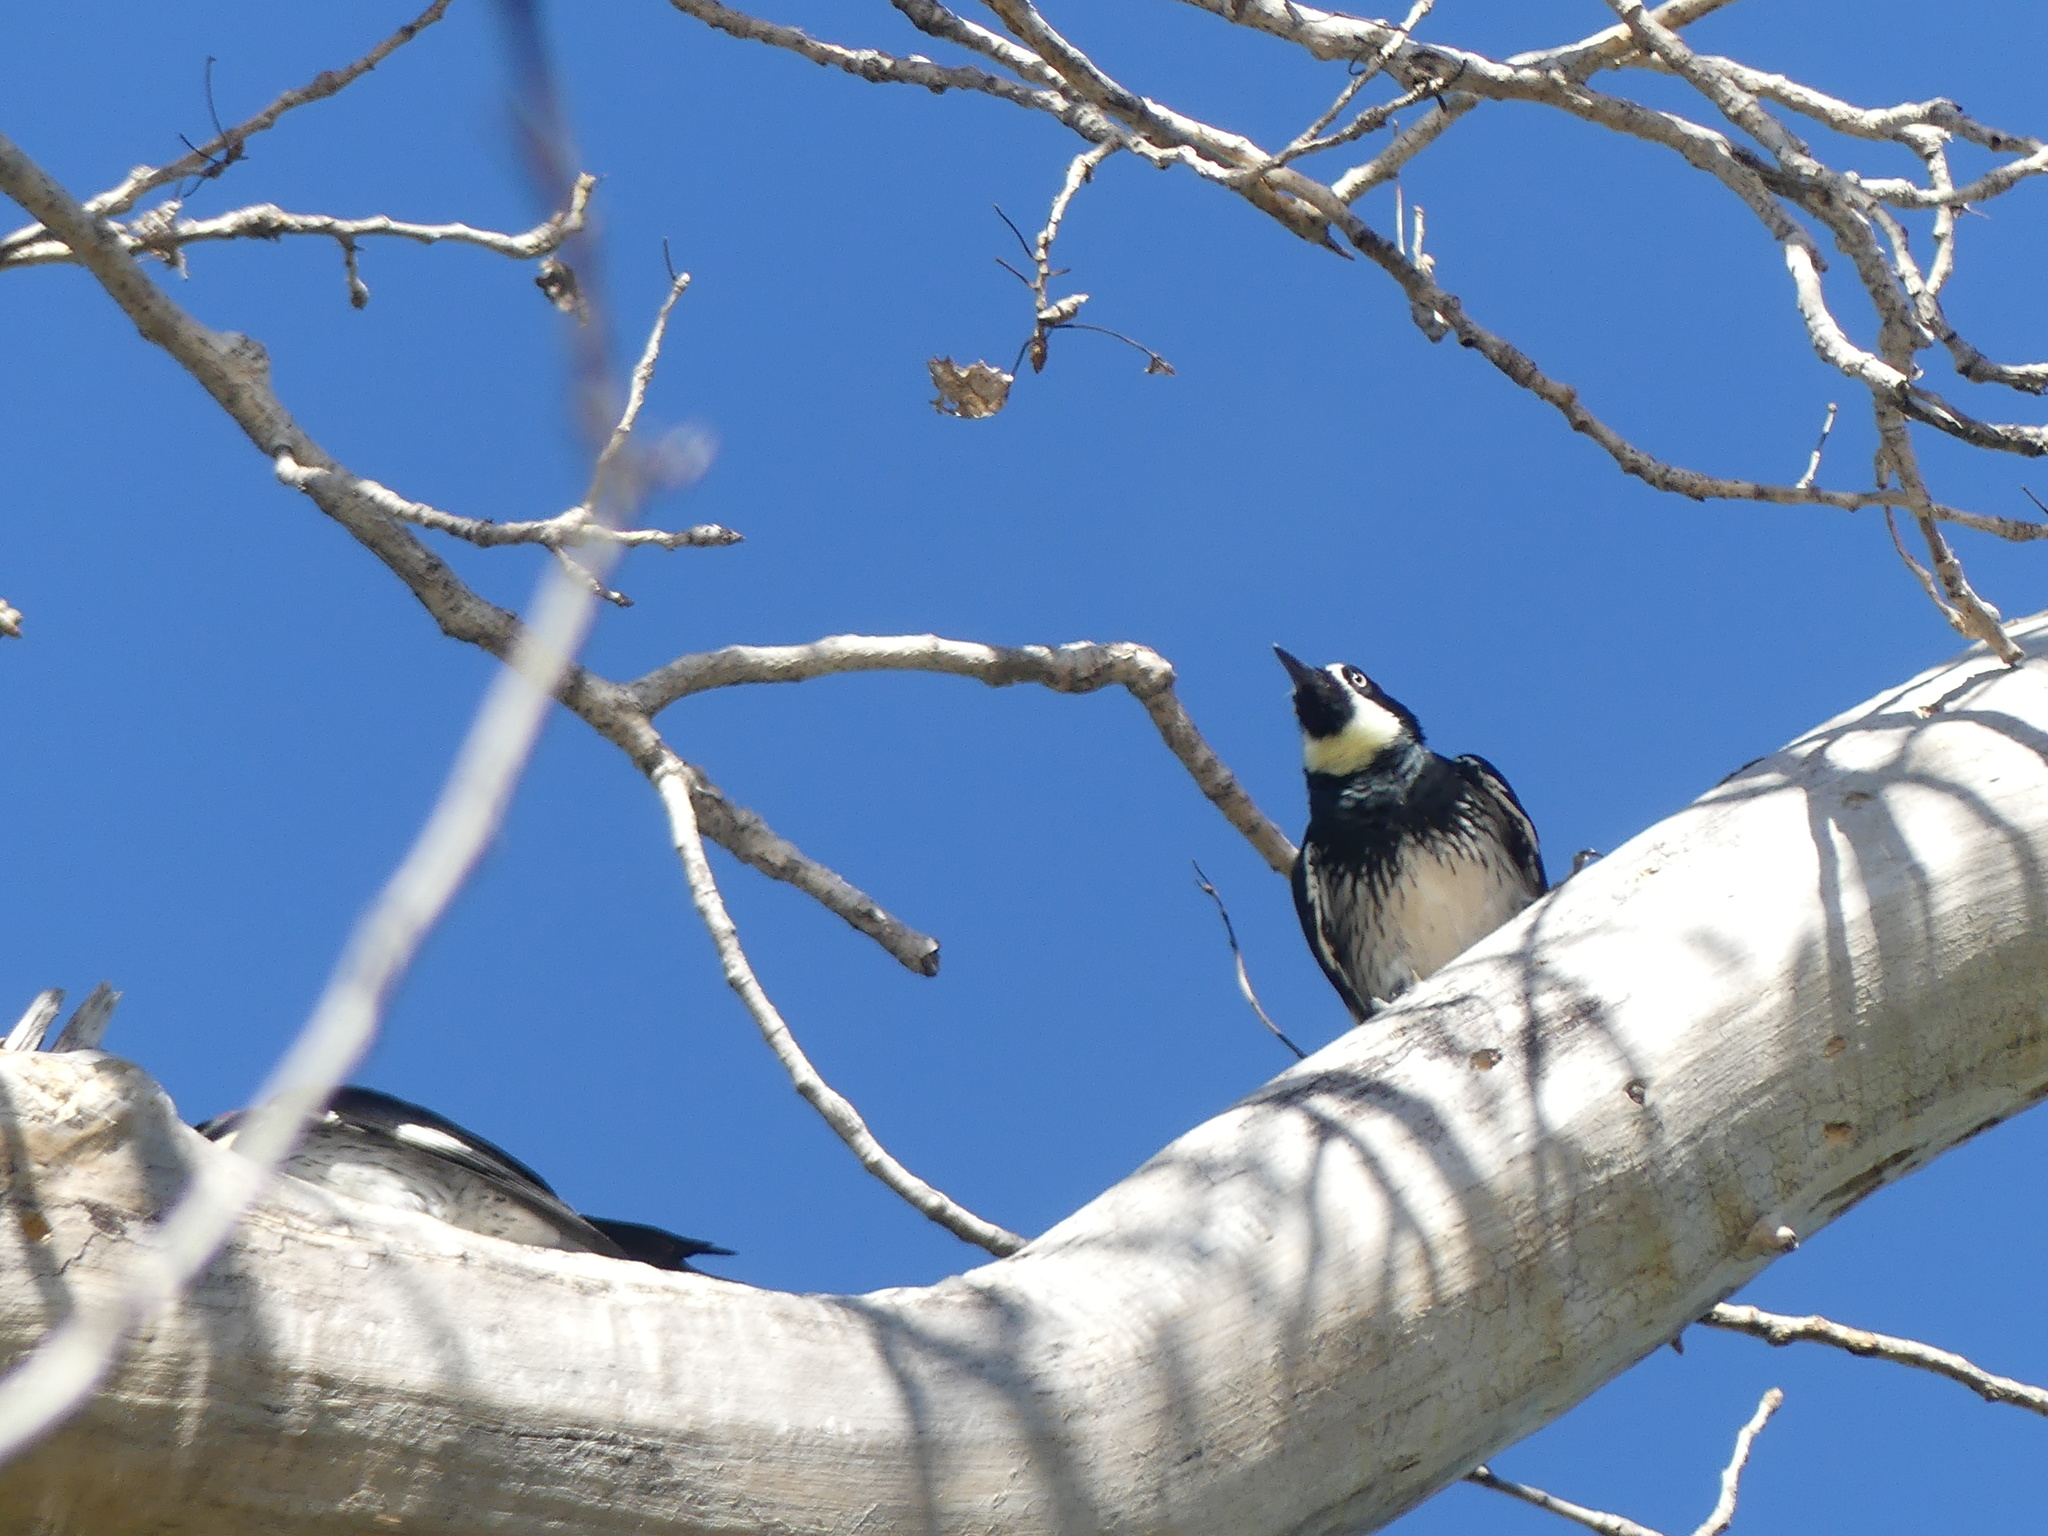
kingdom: Animalia
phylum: Chordata
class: Aves
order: Piciformes
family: Picidae
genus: Melanerpes
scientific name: Melanerpes formicivorus
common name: Acorn woodpecker
